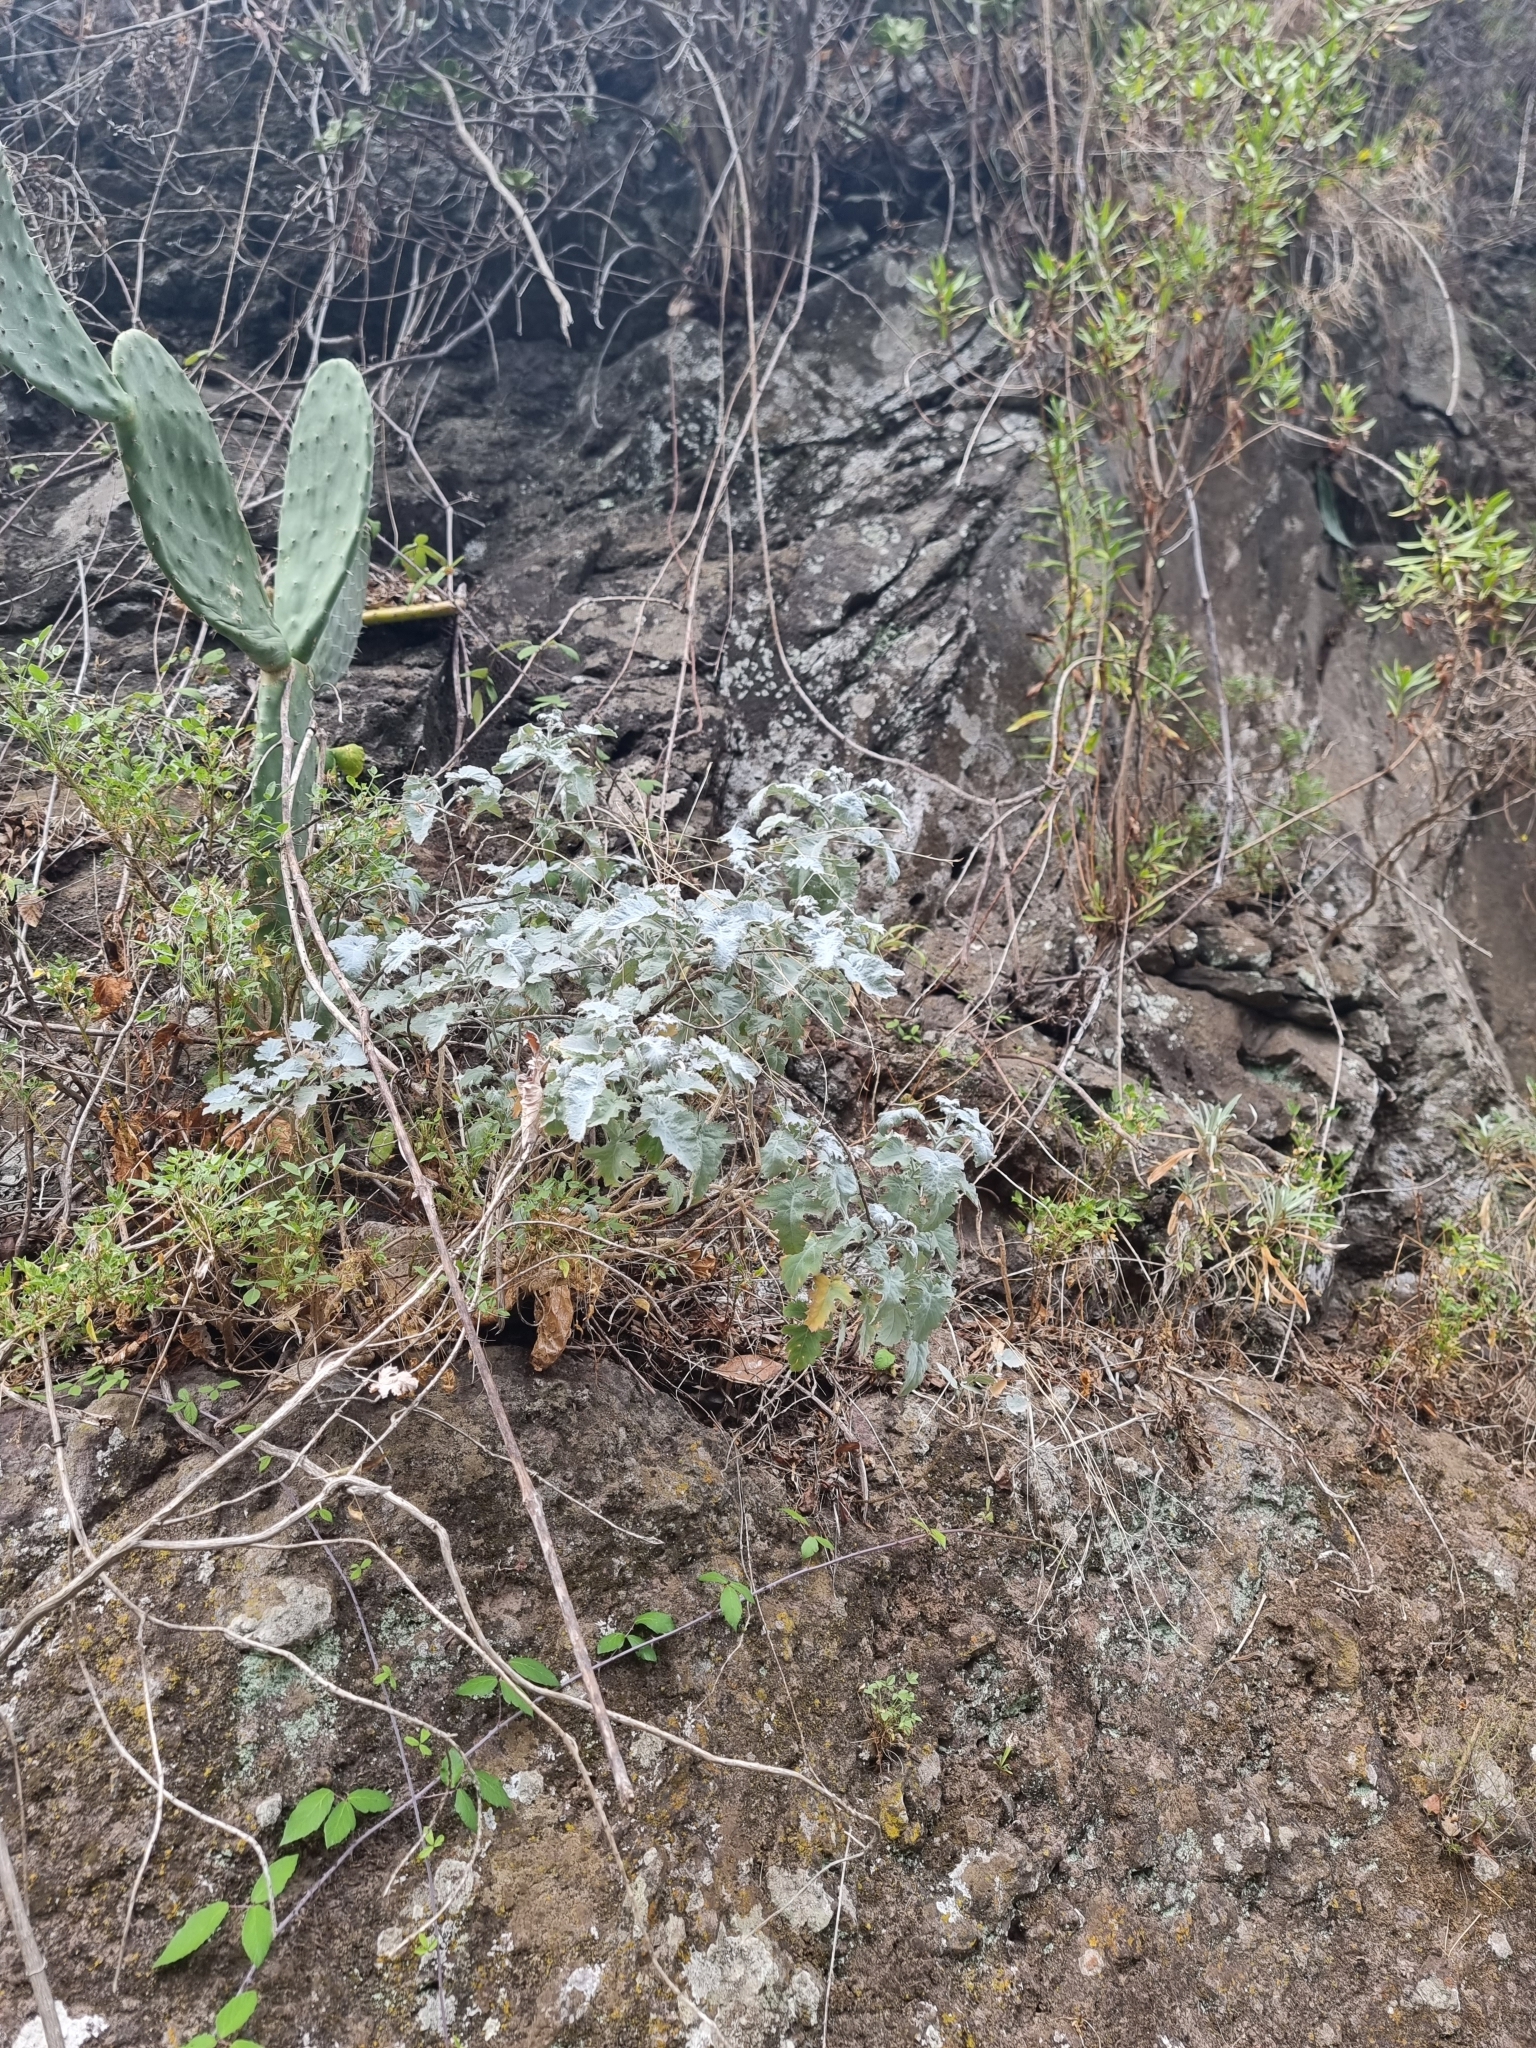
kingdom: Plantae
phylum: Tracheophyta
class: Magnoliopsida
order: Brassicales
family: Brassicaceae
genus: Crambe
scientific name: Crambe fruticosa
